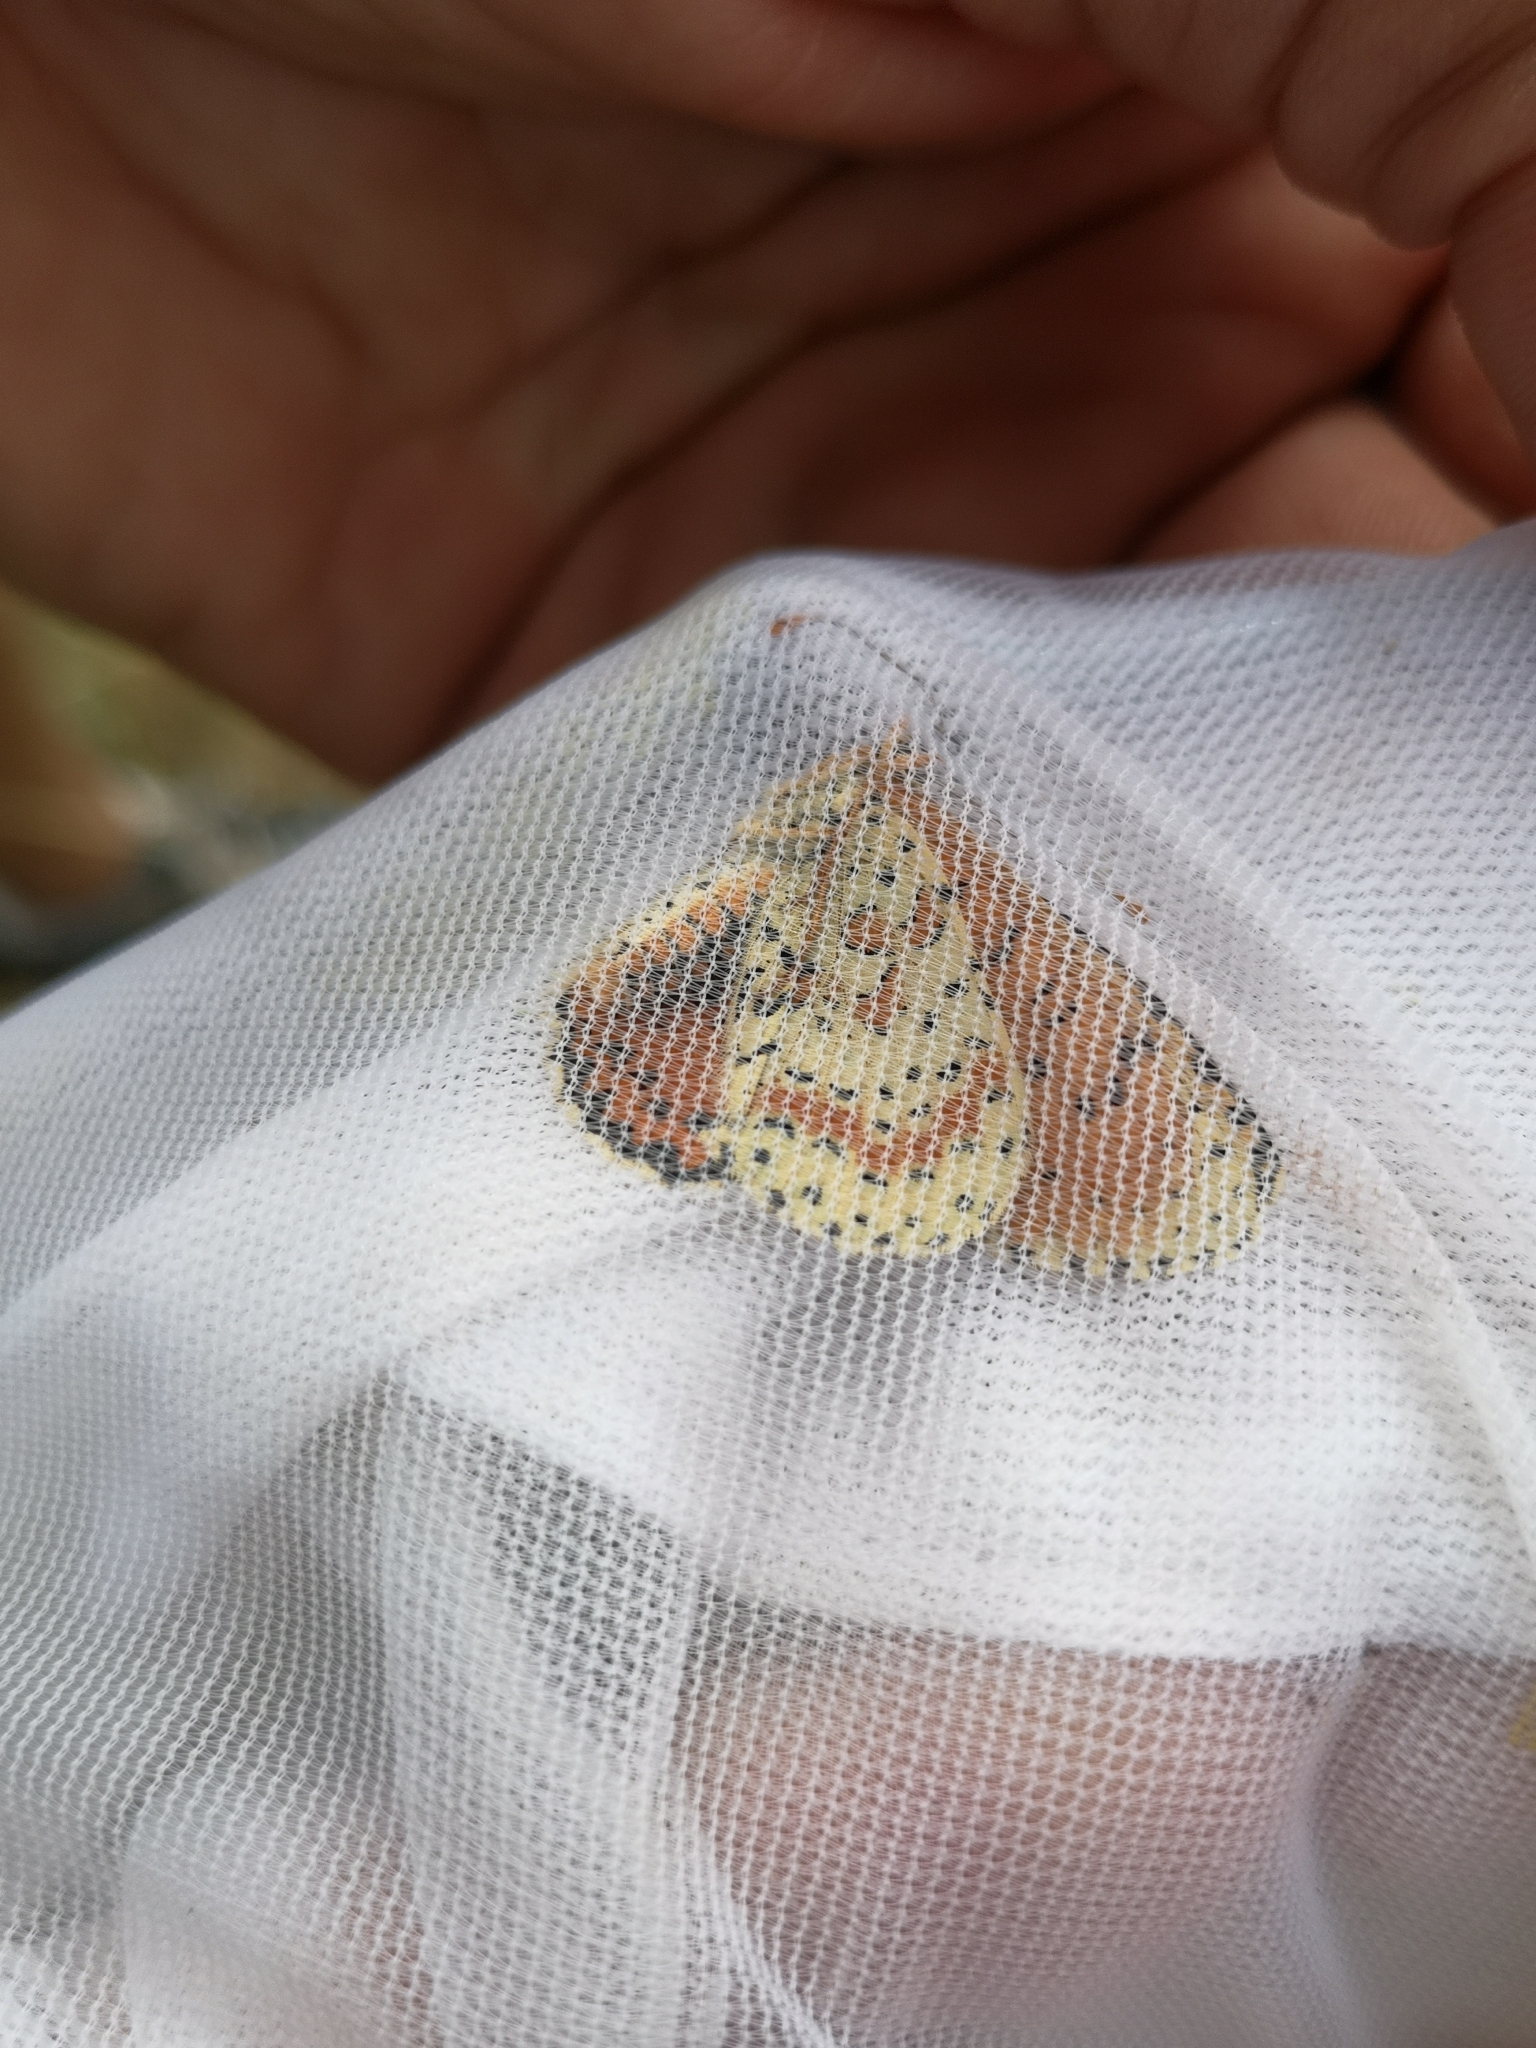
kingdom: Animalia
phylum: Arthropoda
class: Insecta
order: Lepidoptera
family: Nymphalidae
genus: Melitaea
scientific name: Melitaea didyma
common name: Spotted fritillary
